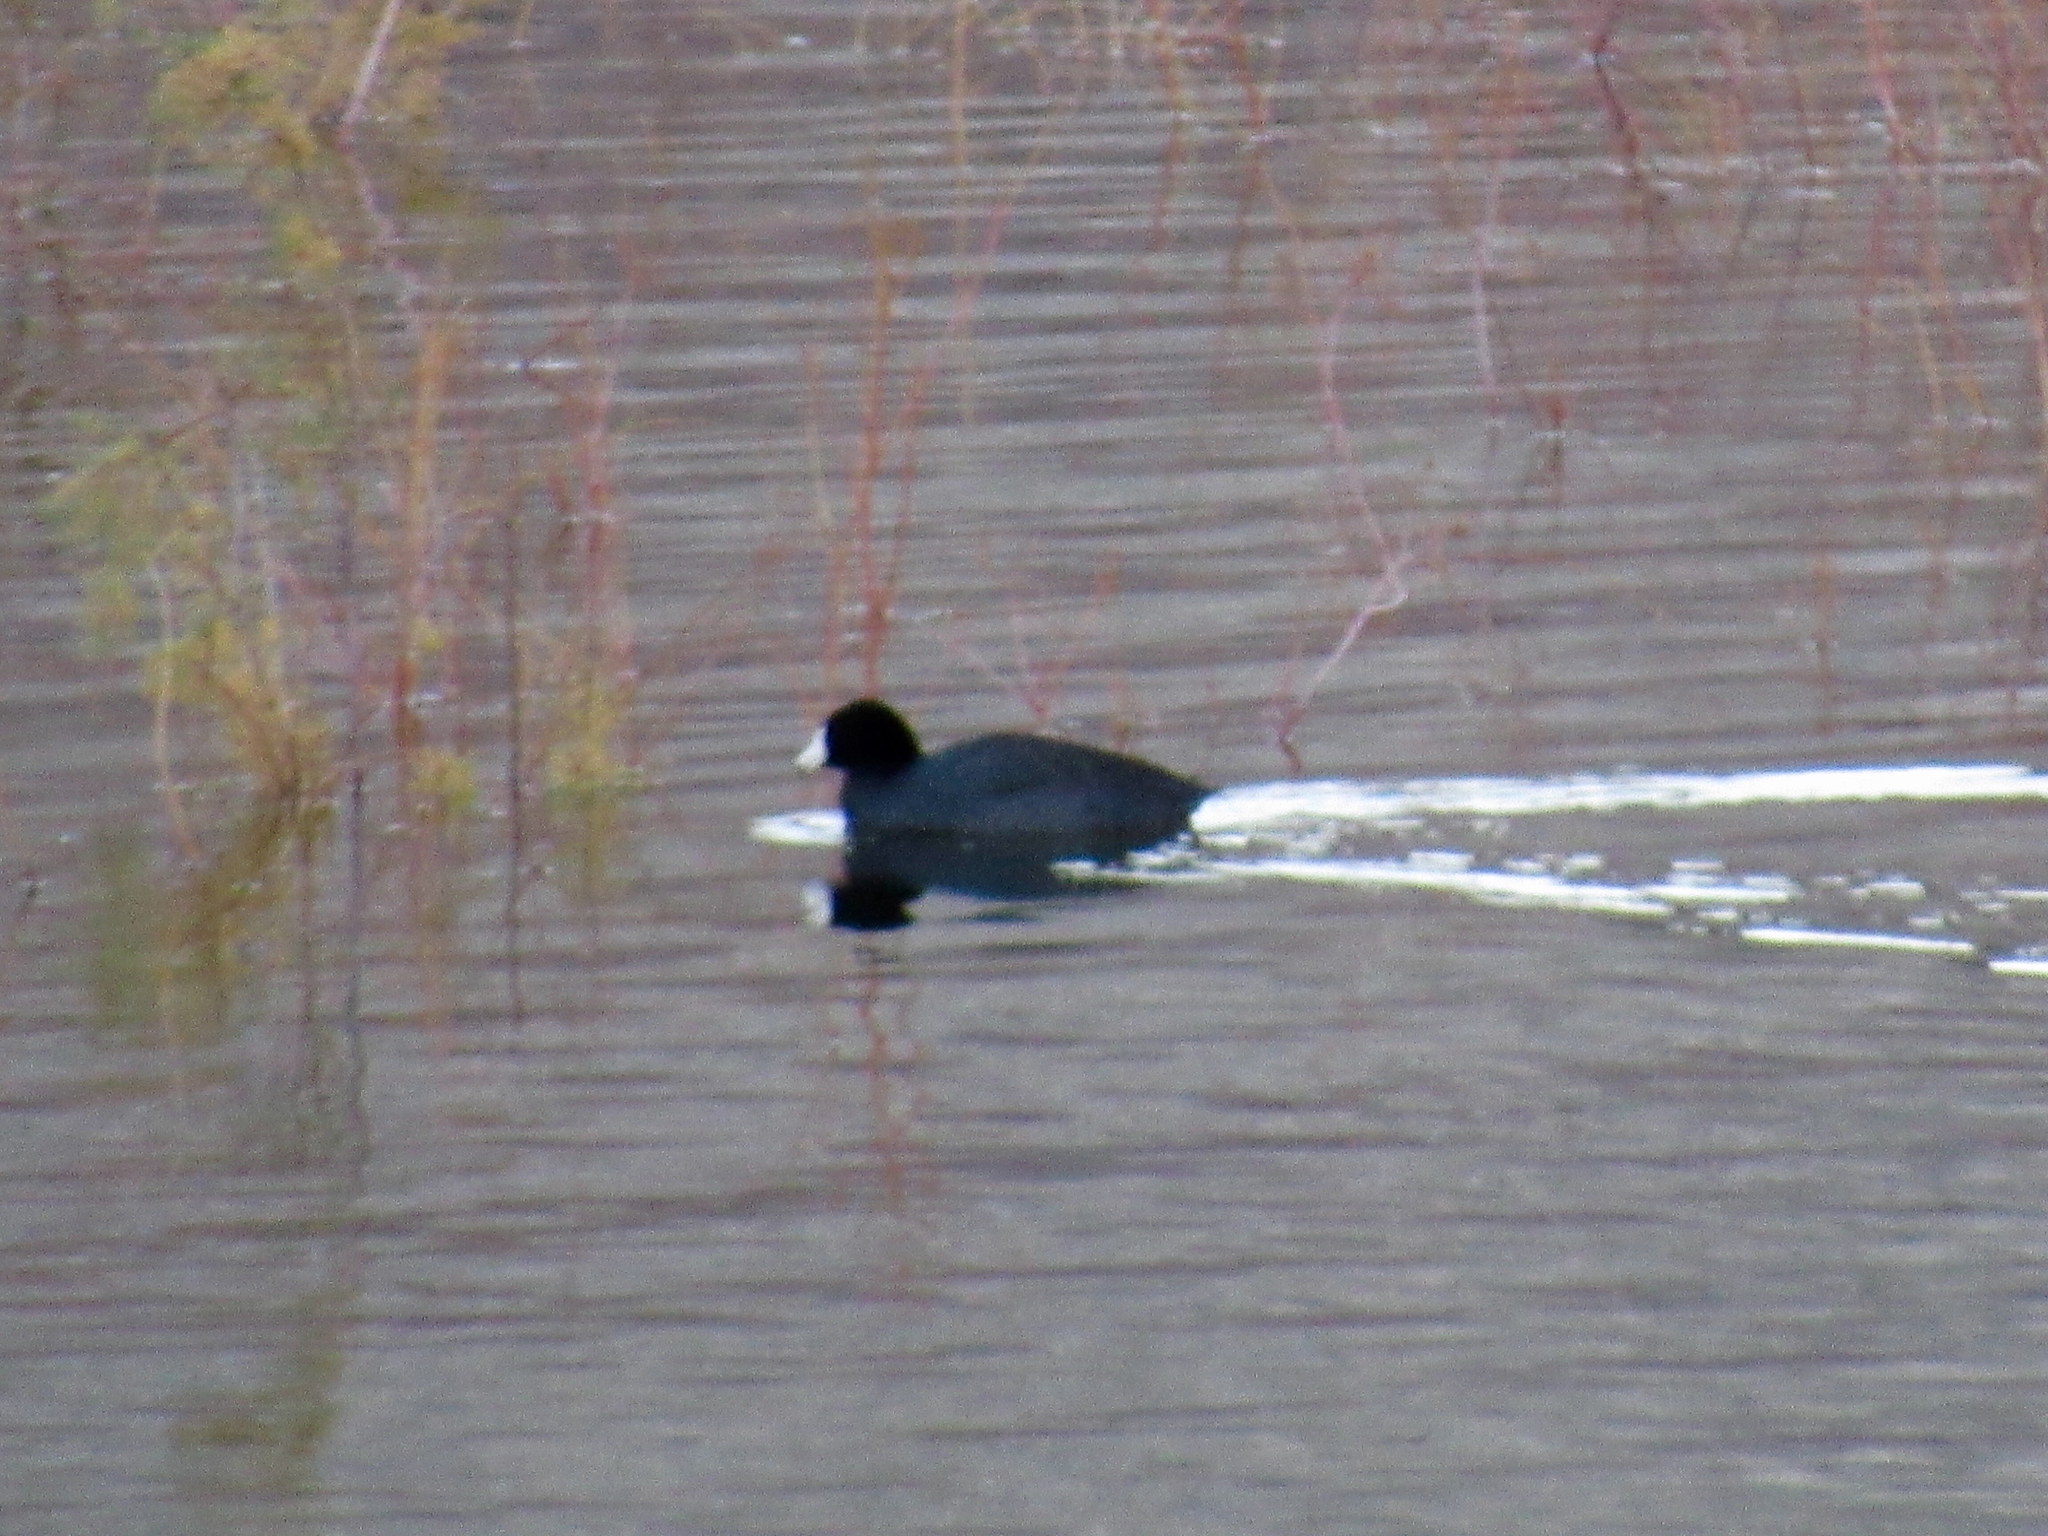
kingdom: Animalia
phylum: Chordata
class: Aves
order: Gruiformes
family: Rallidae
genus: Fulica
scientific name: Fulica americana
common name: American coot
